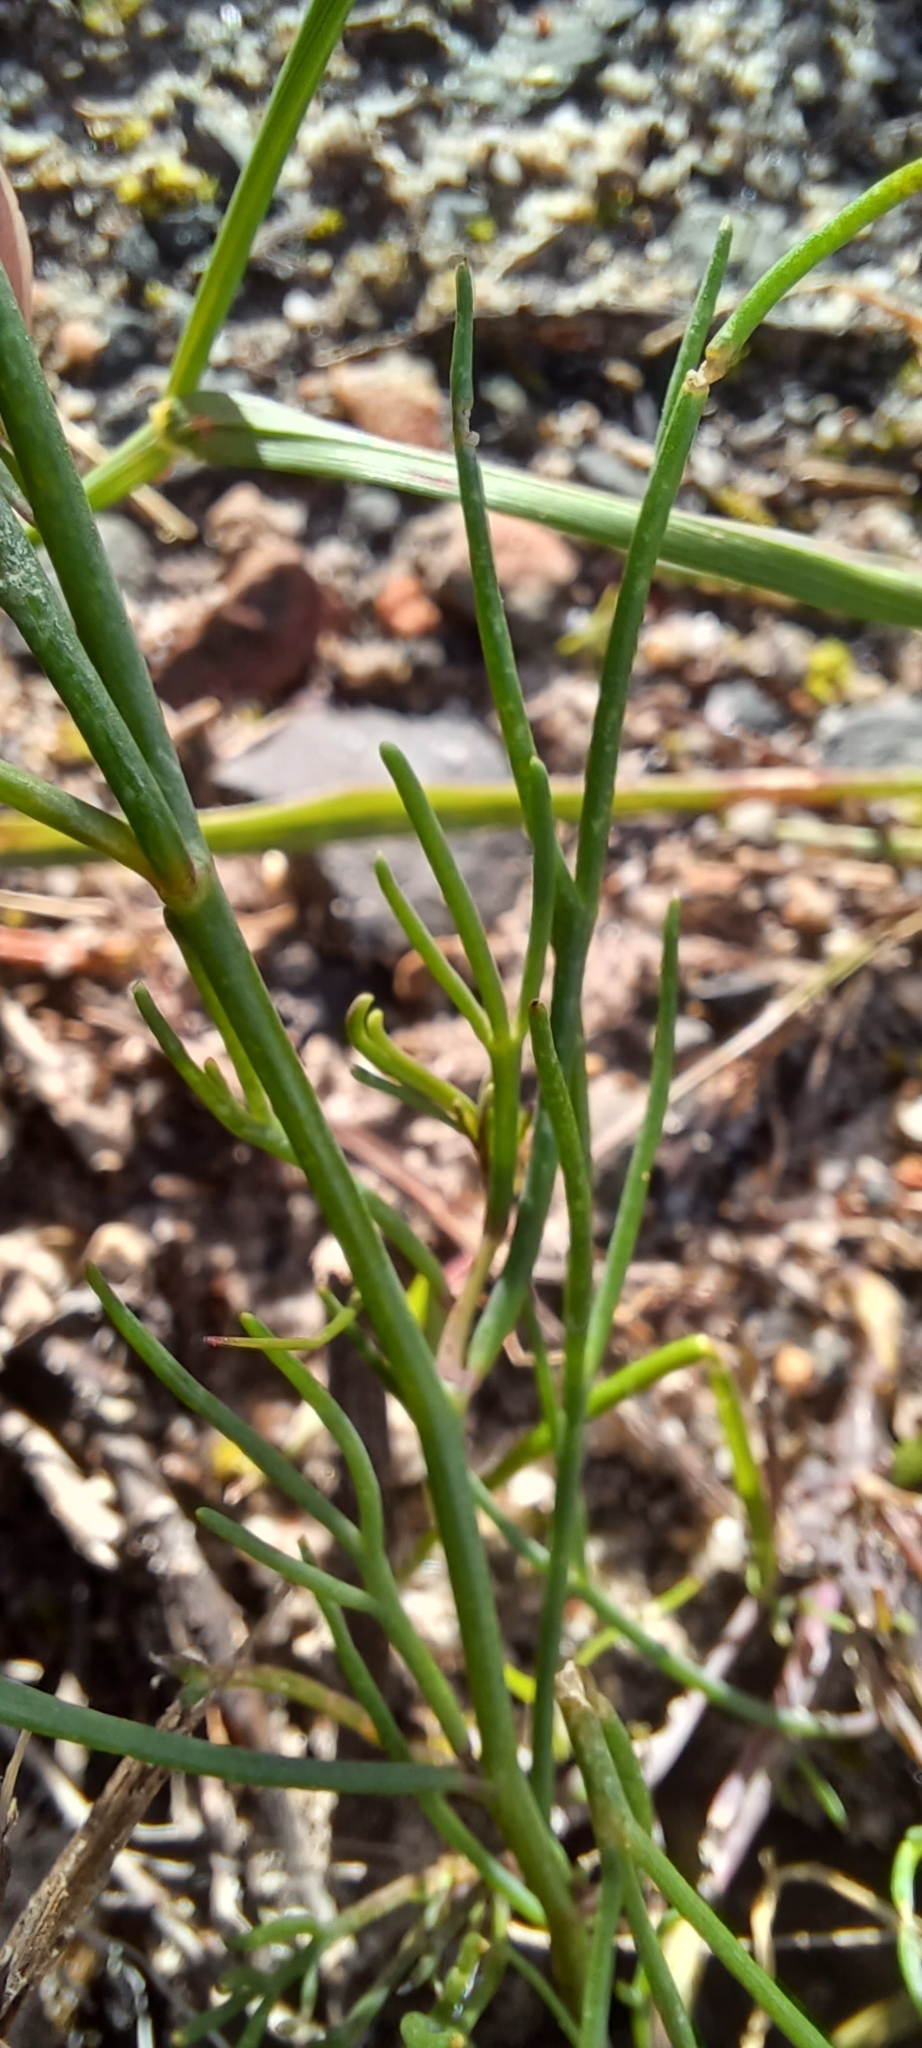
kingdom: Plantae
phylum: Tracheophyta
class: Magnoliopsida
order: Brassicales
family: Brassicaceae
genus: Heliophila
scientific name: Heliophila bulbostyla
